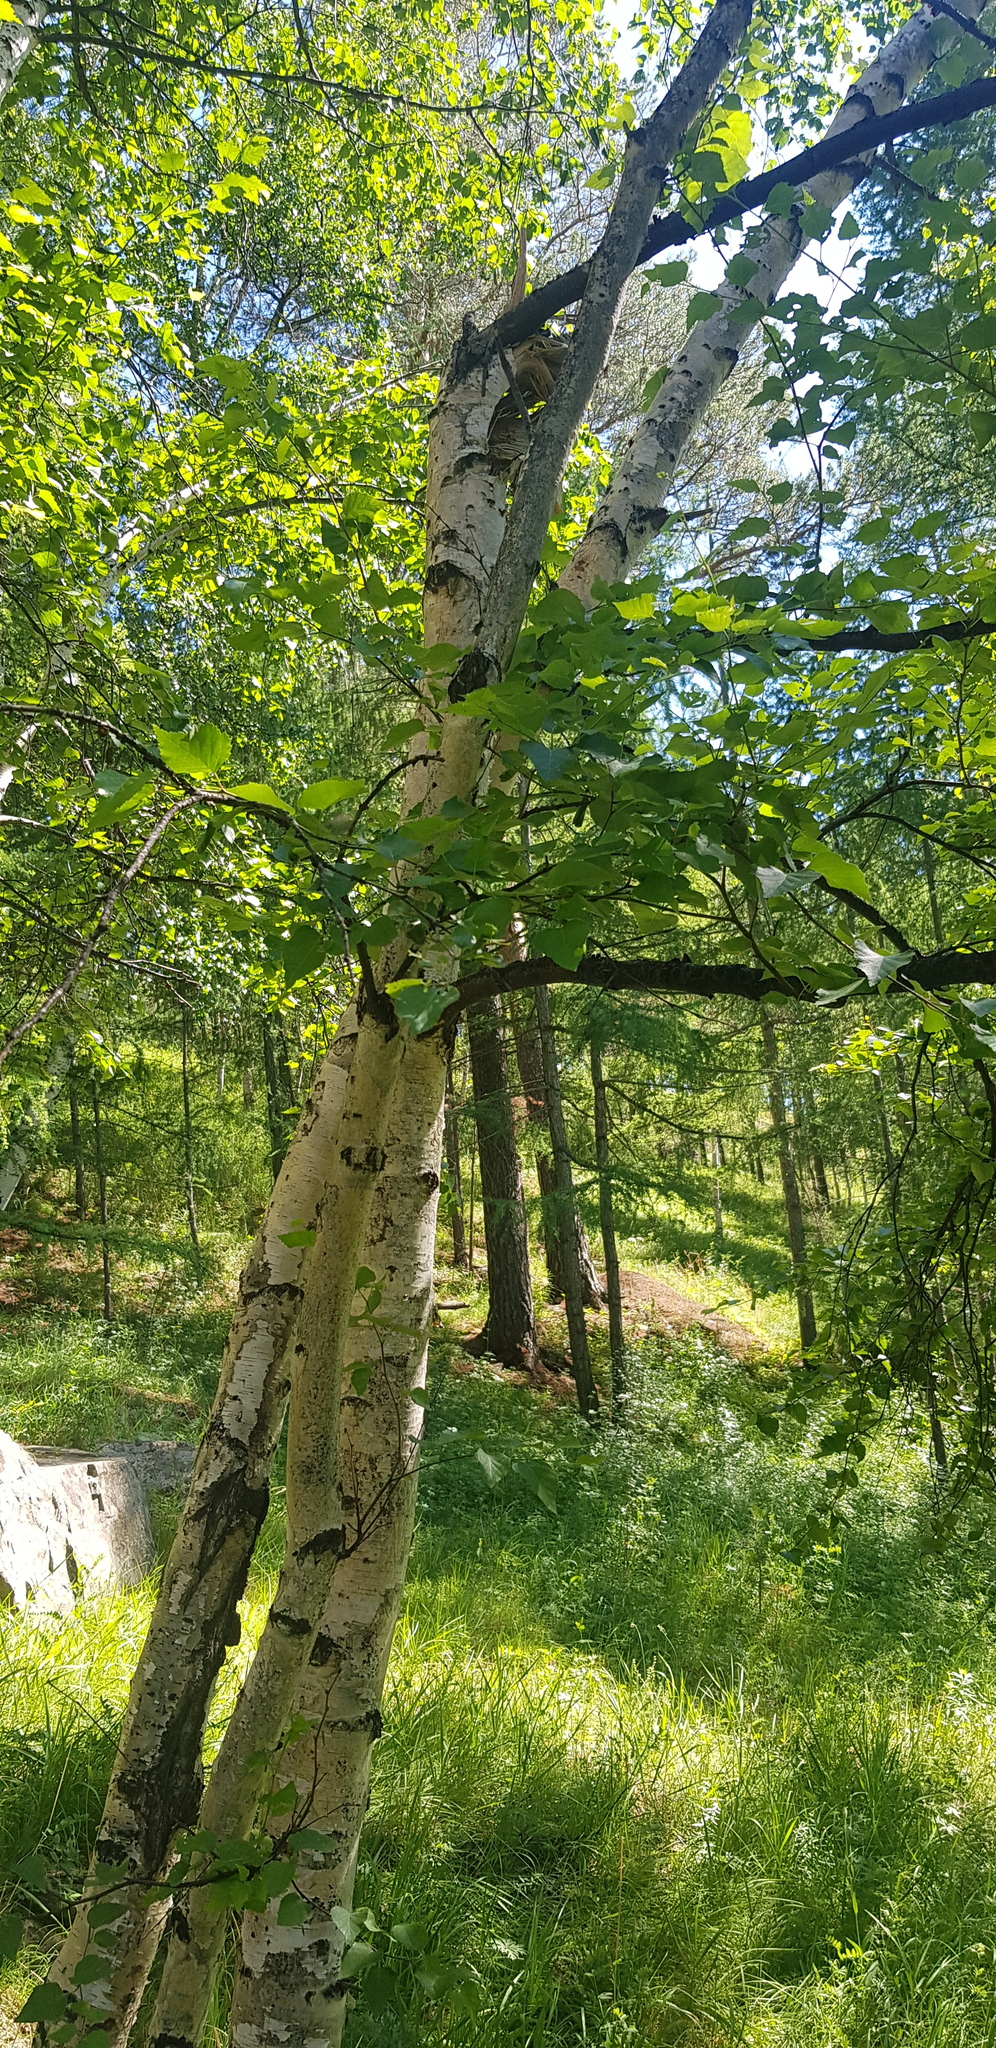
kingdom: Plantae
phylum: Tracheophyta
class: Magnoliopsida
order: Fagales
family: Betulaceae
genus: Betula
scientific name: Betula pendula
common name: Silver birch
